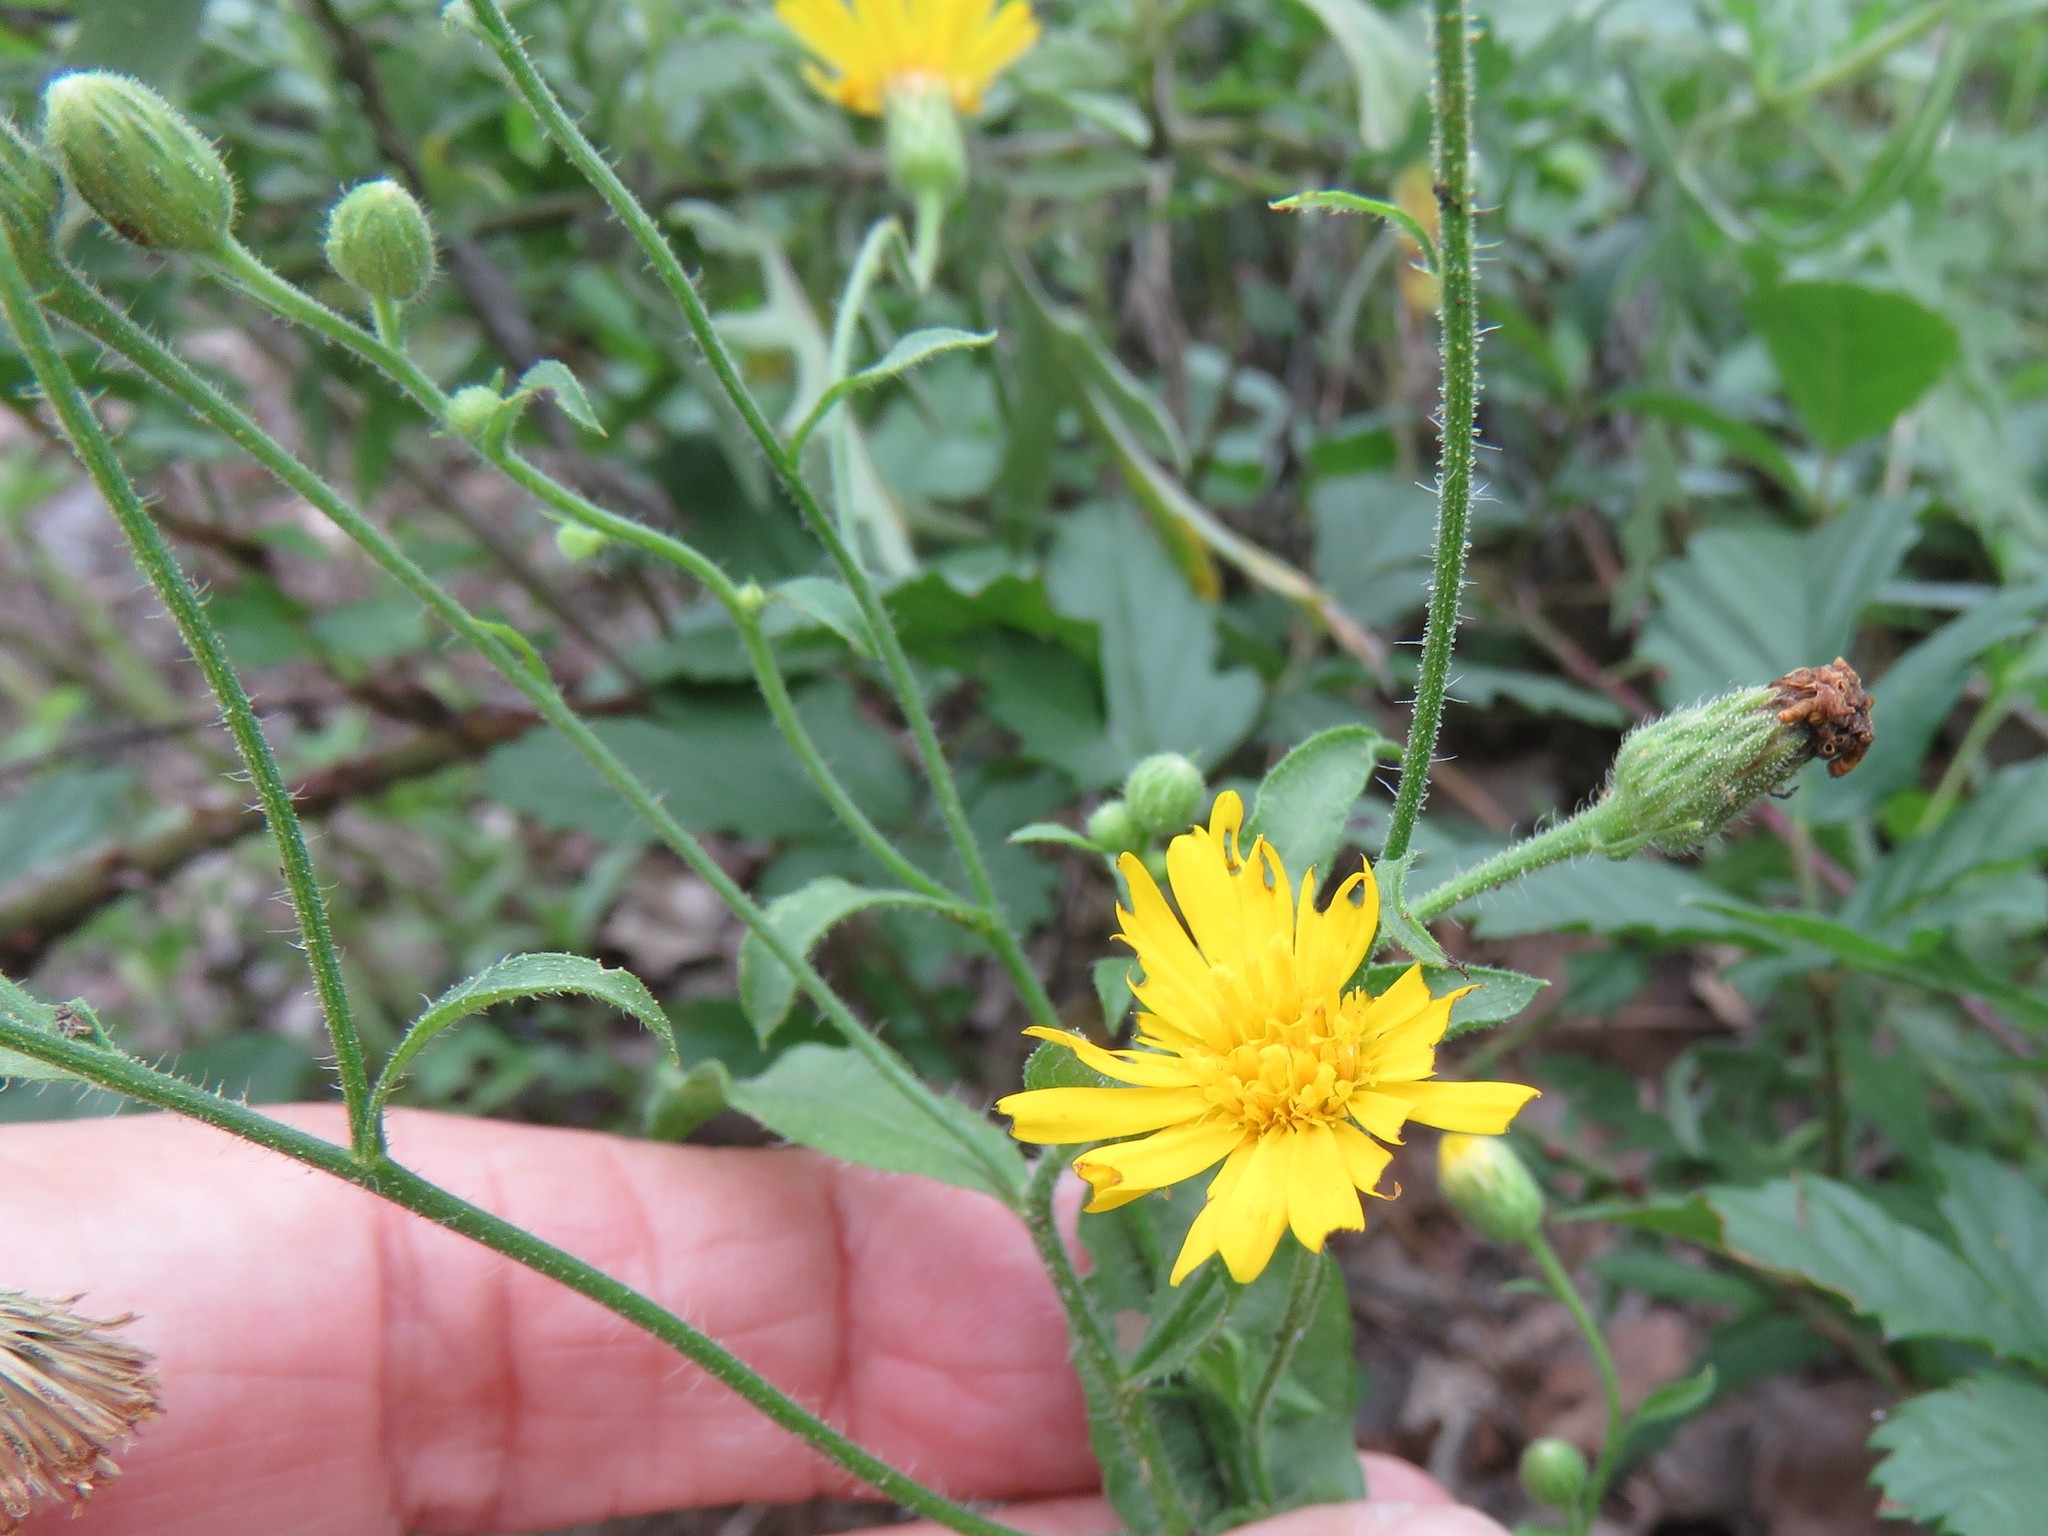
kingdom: Plantae
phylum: Tracheophyta
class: Magnoliopsida
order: Asterales
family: Asteraceae
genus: Heterotheca
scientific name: Heterotheca subaxillaris
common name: Camphorweed
